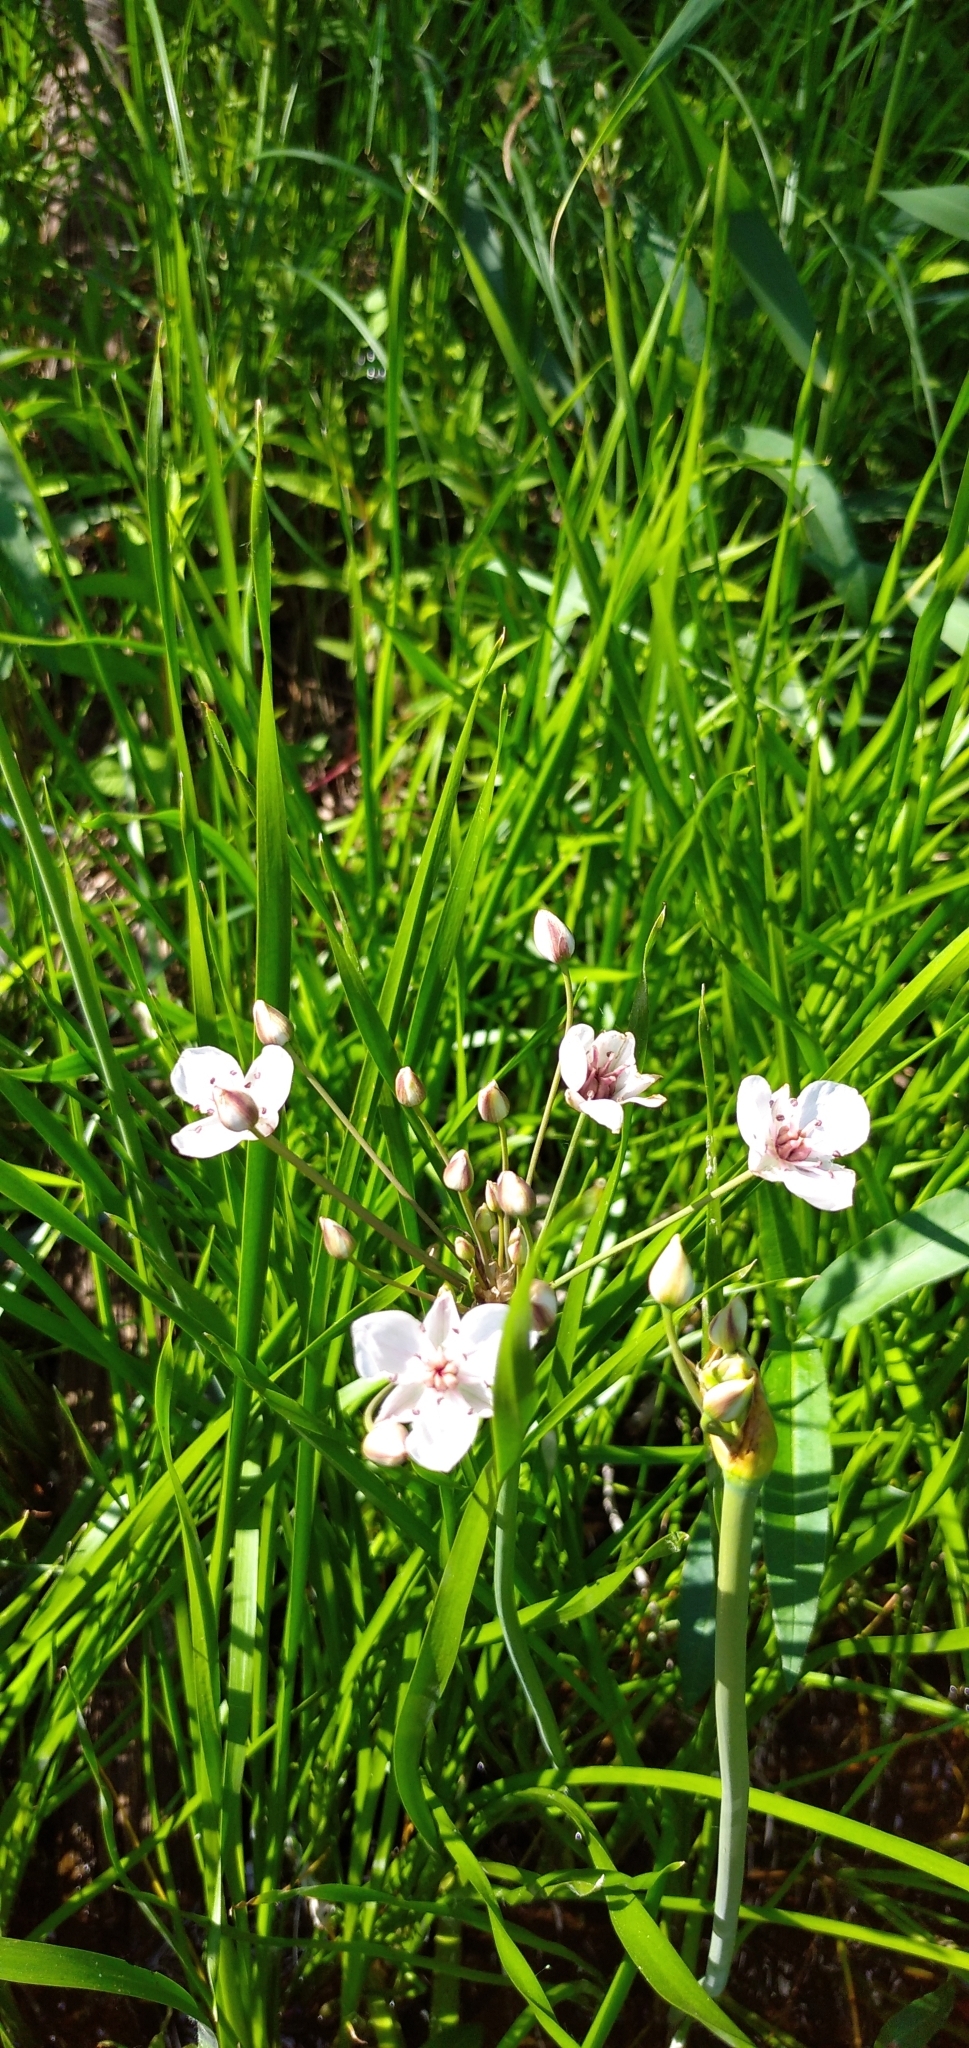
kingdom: Plantae
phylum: Tracheophyta
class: Liliopsida
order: Alismatales
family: Butomaceae
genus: Butomus
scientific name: Butomus umbellatus
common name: Flowering-rush
